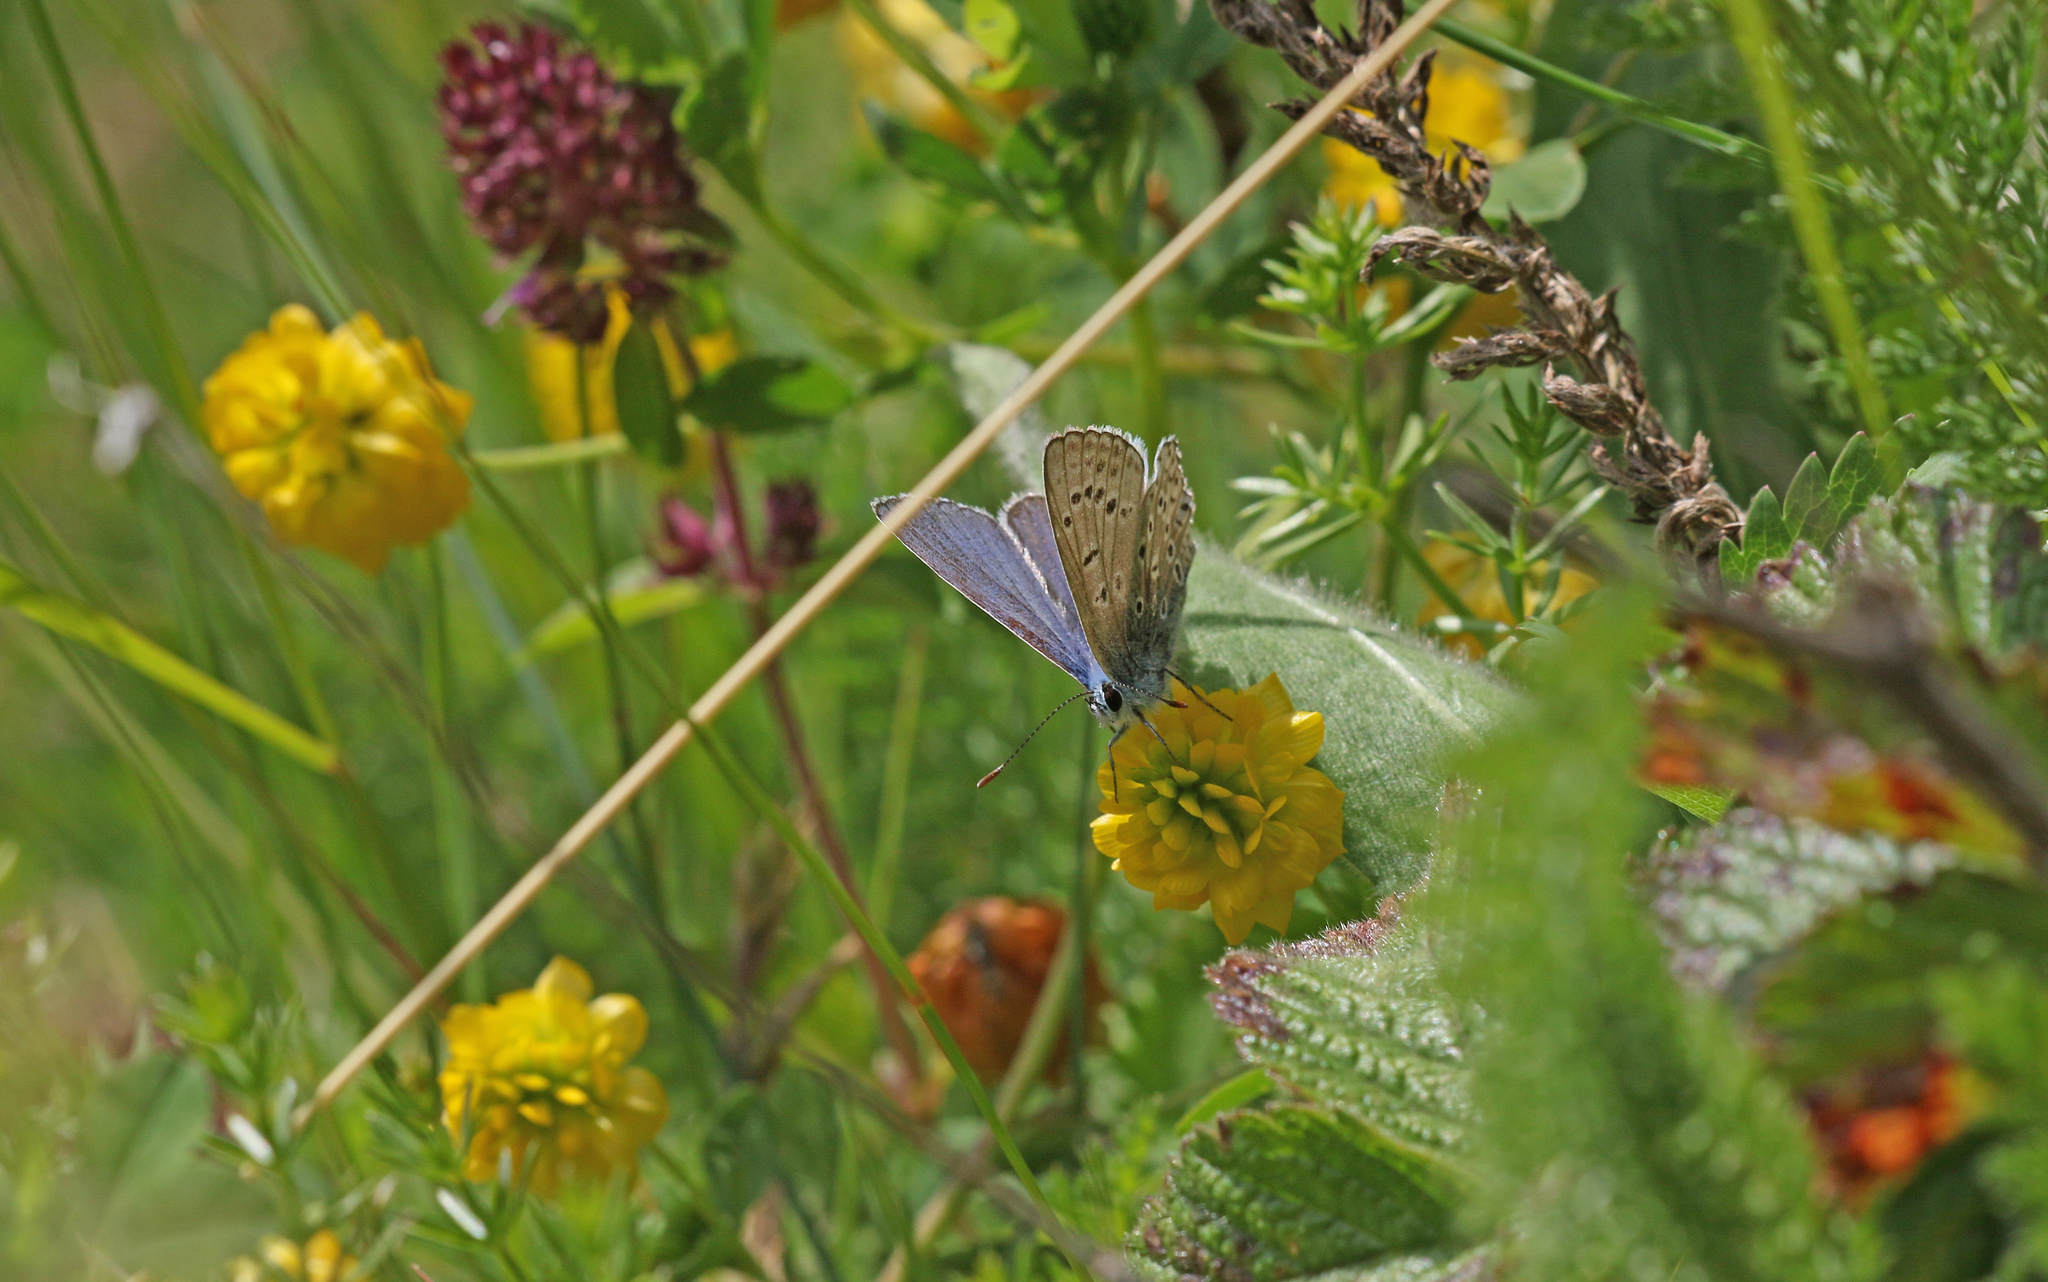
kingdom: Animalia
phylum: Arthropoda
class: Insecta
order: Lepidoptera
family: Lycaenidae
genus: Polyommatus
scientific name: Polyommatus icarus
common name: Common blue
